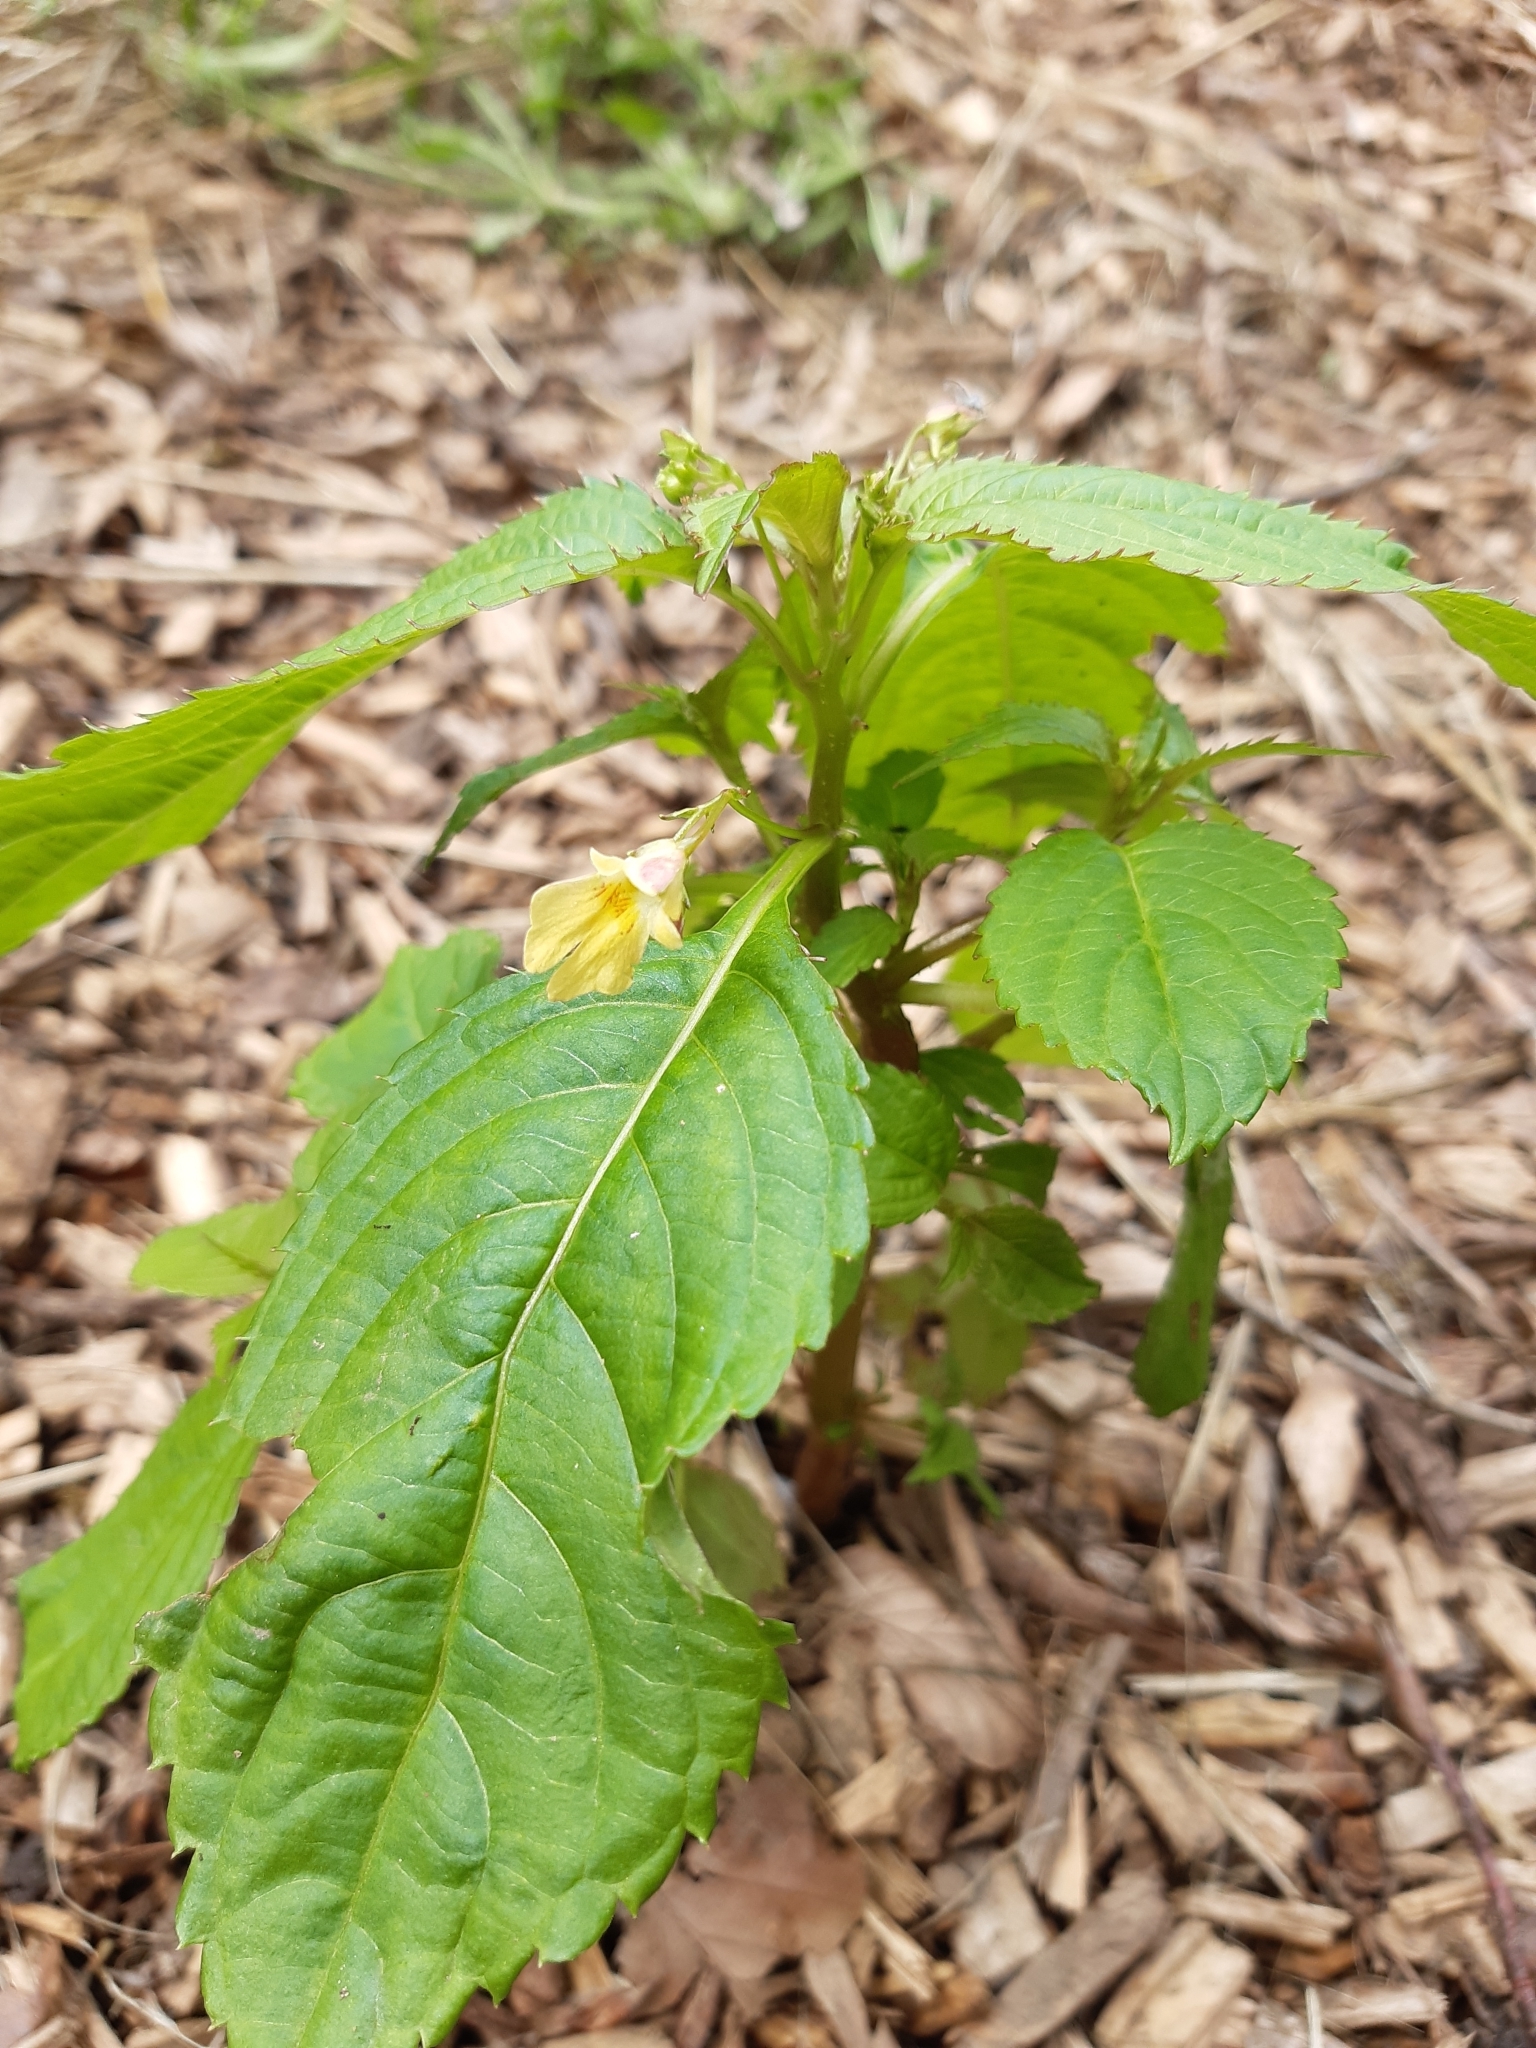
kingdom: Plantae
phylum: Tracheophyta
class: Magnoliopsida
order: Ericales
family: Balsaminaceae
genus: Impatiens
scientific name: Impatiens parviflora
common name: Small balsam
